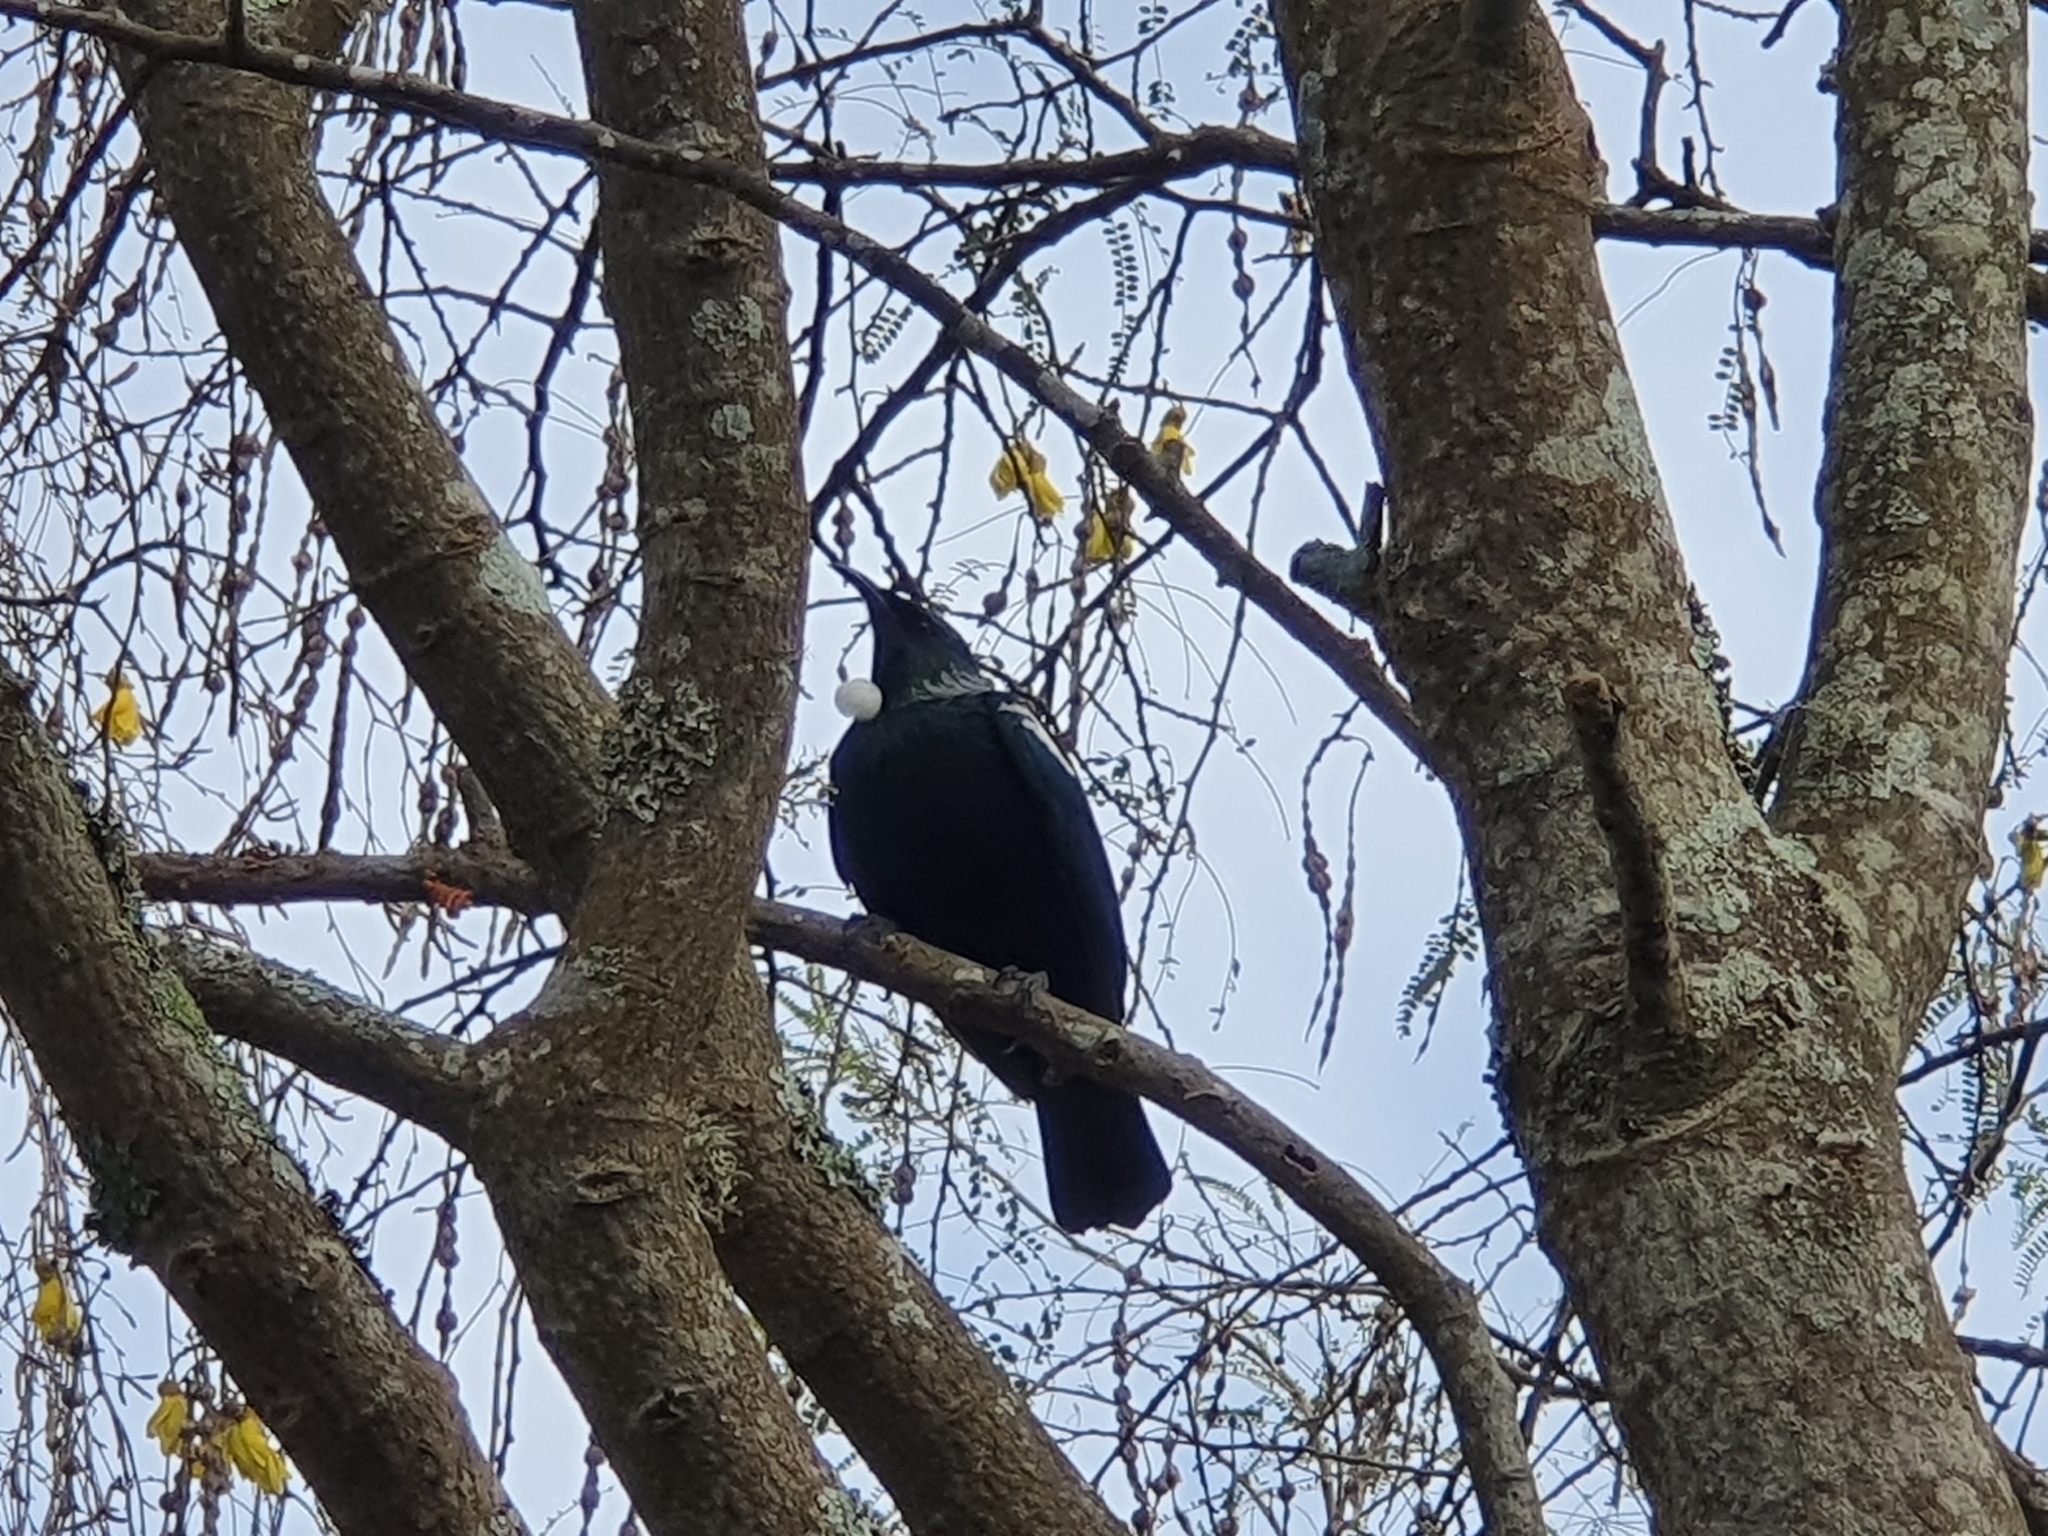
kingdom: Animalia
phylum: Chordata
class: Aves
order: Passeriformes
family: Meliphagidae
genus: Prosthemadera
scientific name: Prosthemadera novaeseelandiae
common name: Tui
